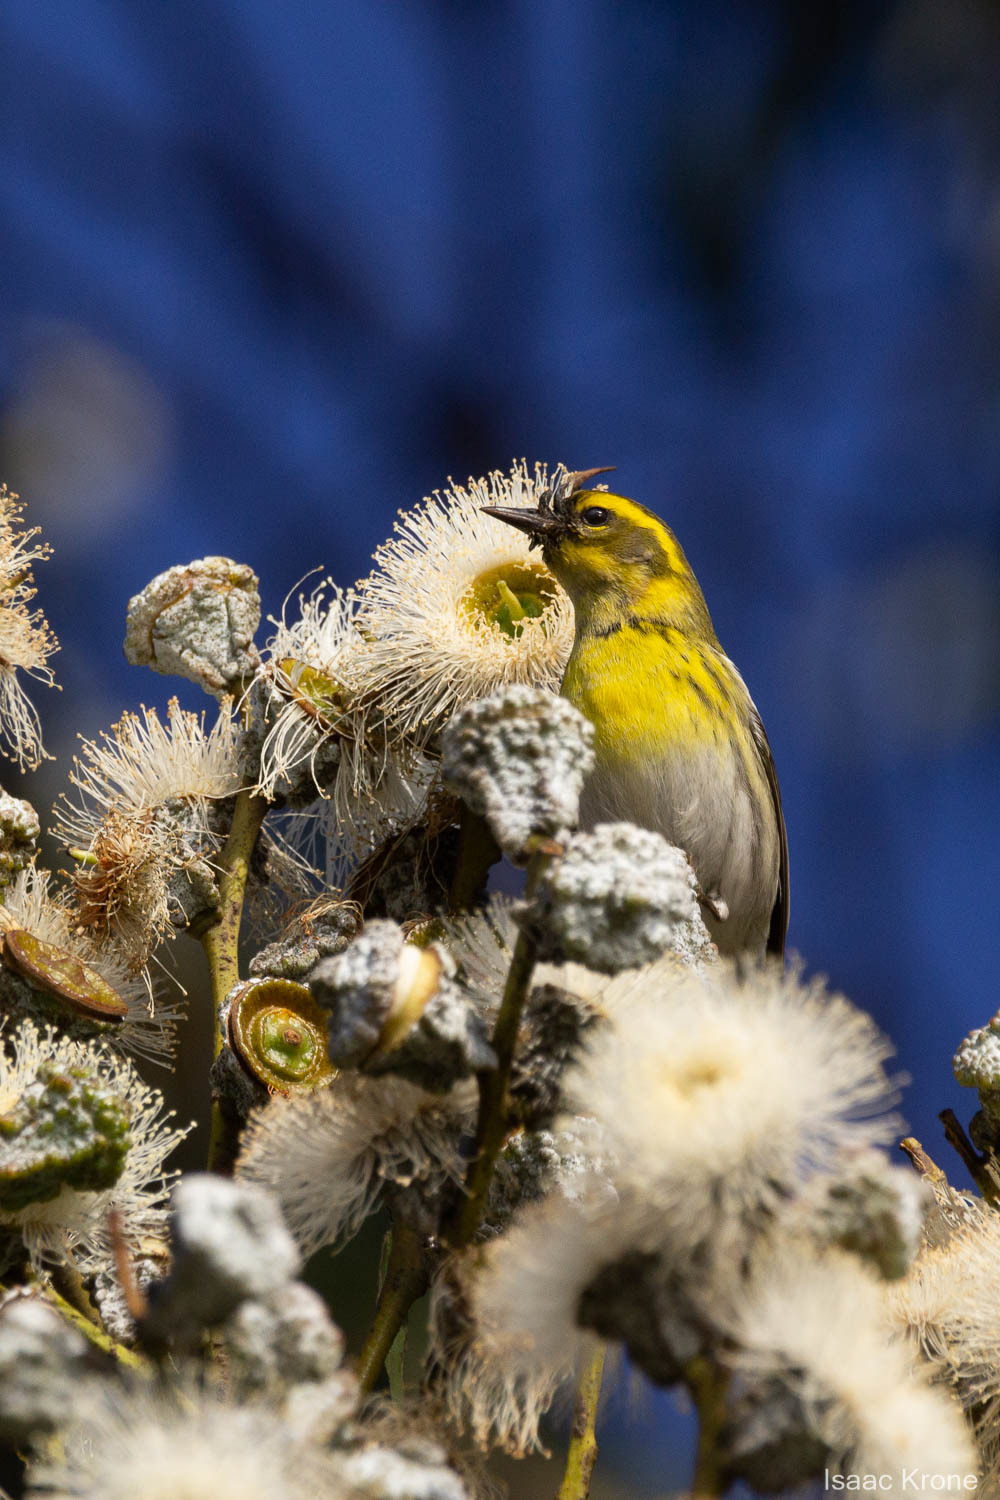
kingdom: Animalia
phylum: Chordata
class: Aves
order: Passeriformes
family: Parulidae
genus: Setophaga
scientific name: Setophaga townsendi
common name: Townsend's warbler
